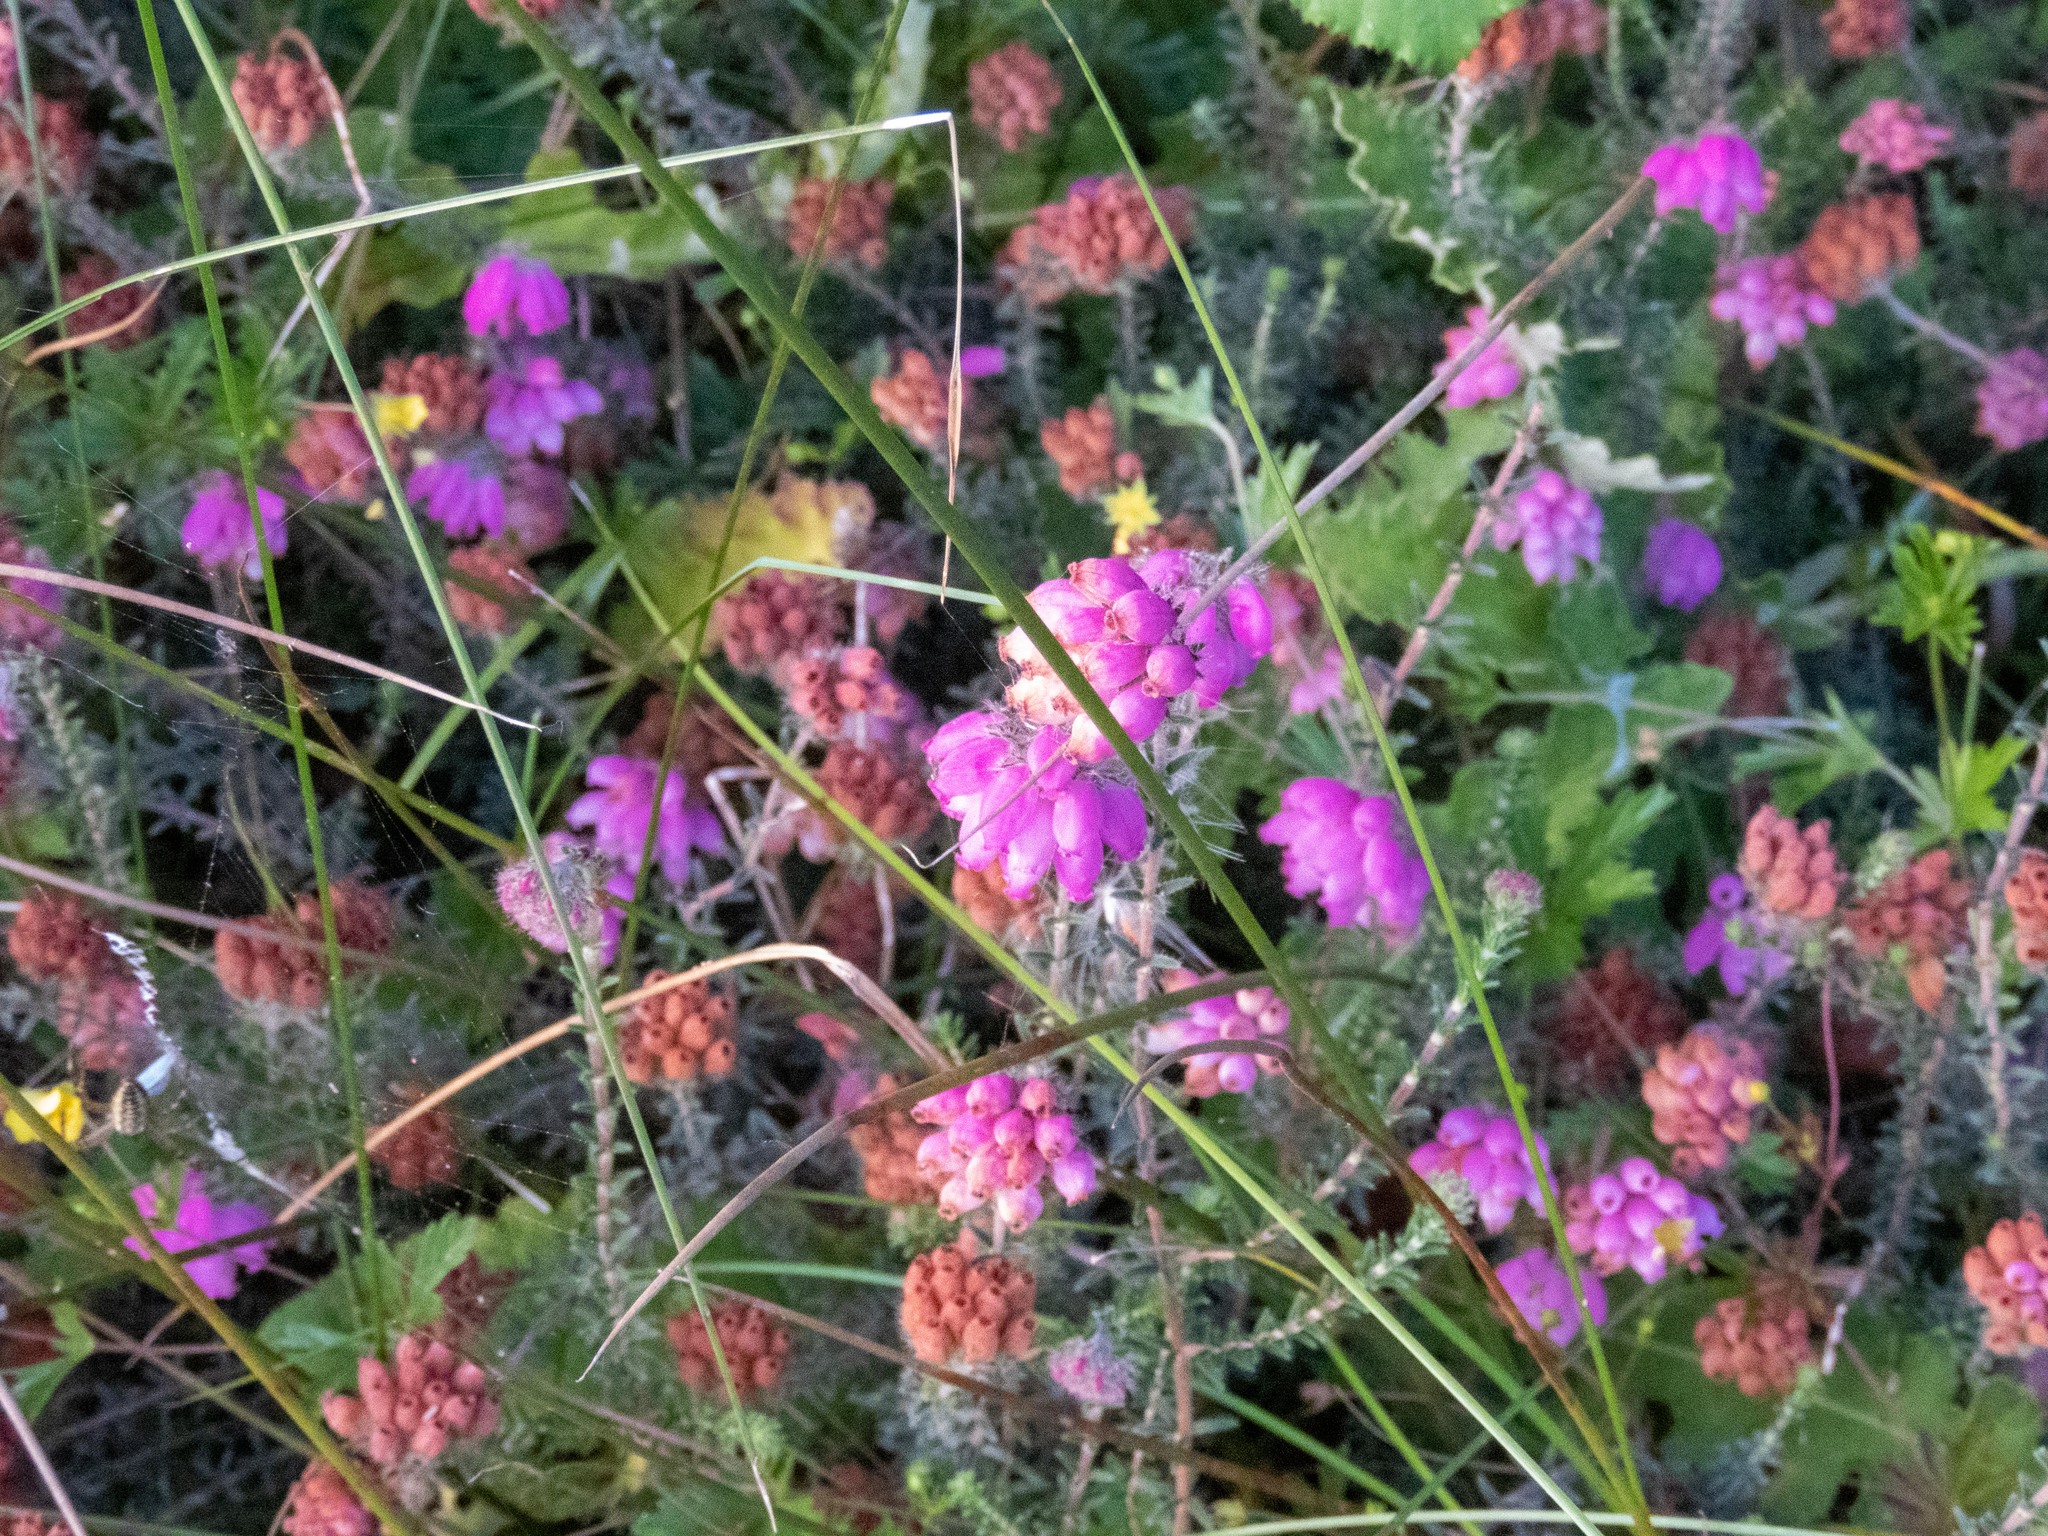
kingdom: Plantae
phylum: Tracheophyta
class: Magnoliopsida
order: Ericales
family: Ericaceae
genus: Erica
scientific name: Erica tetralix
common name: Cross-leaved heath
